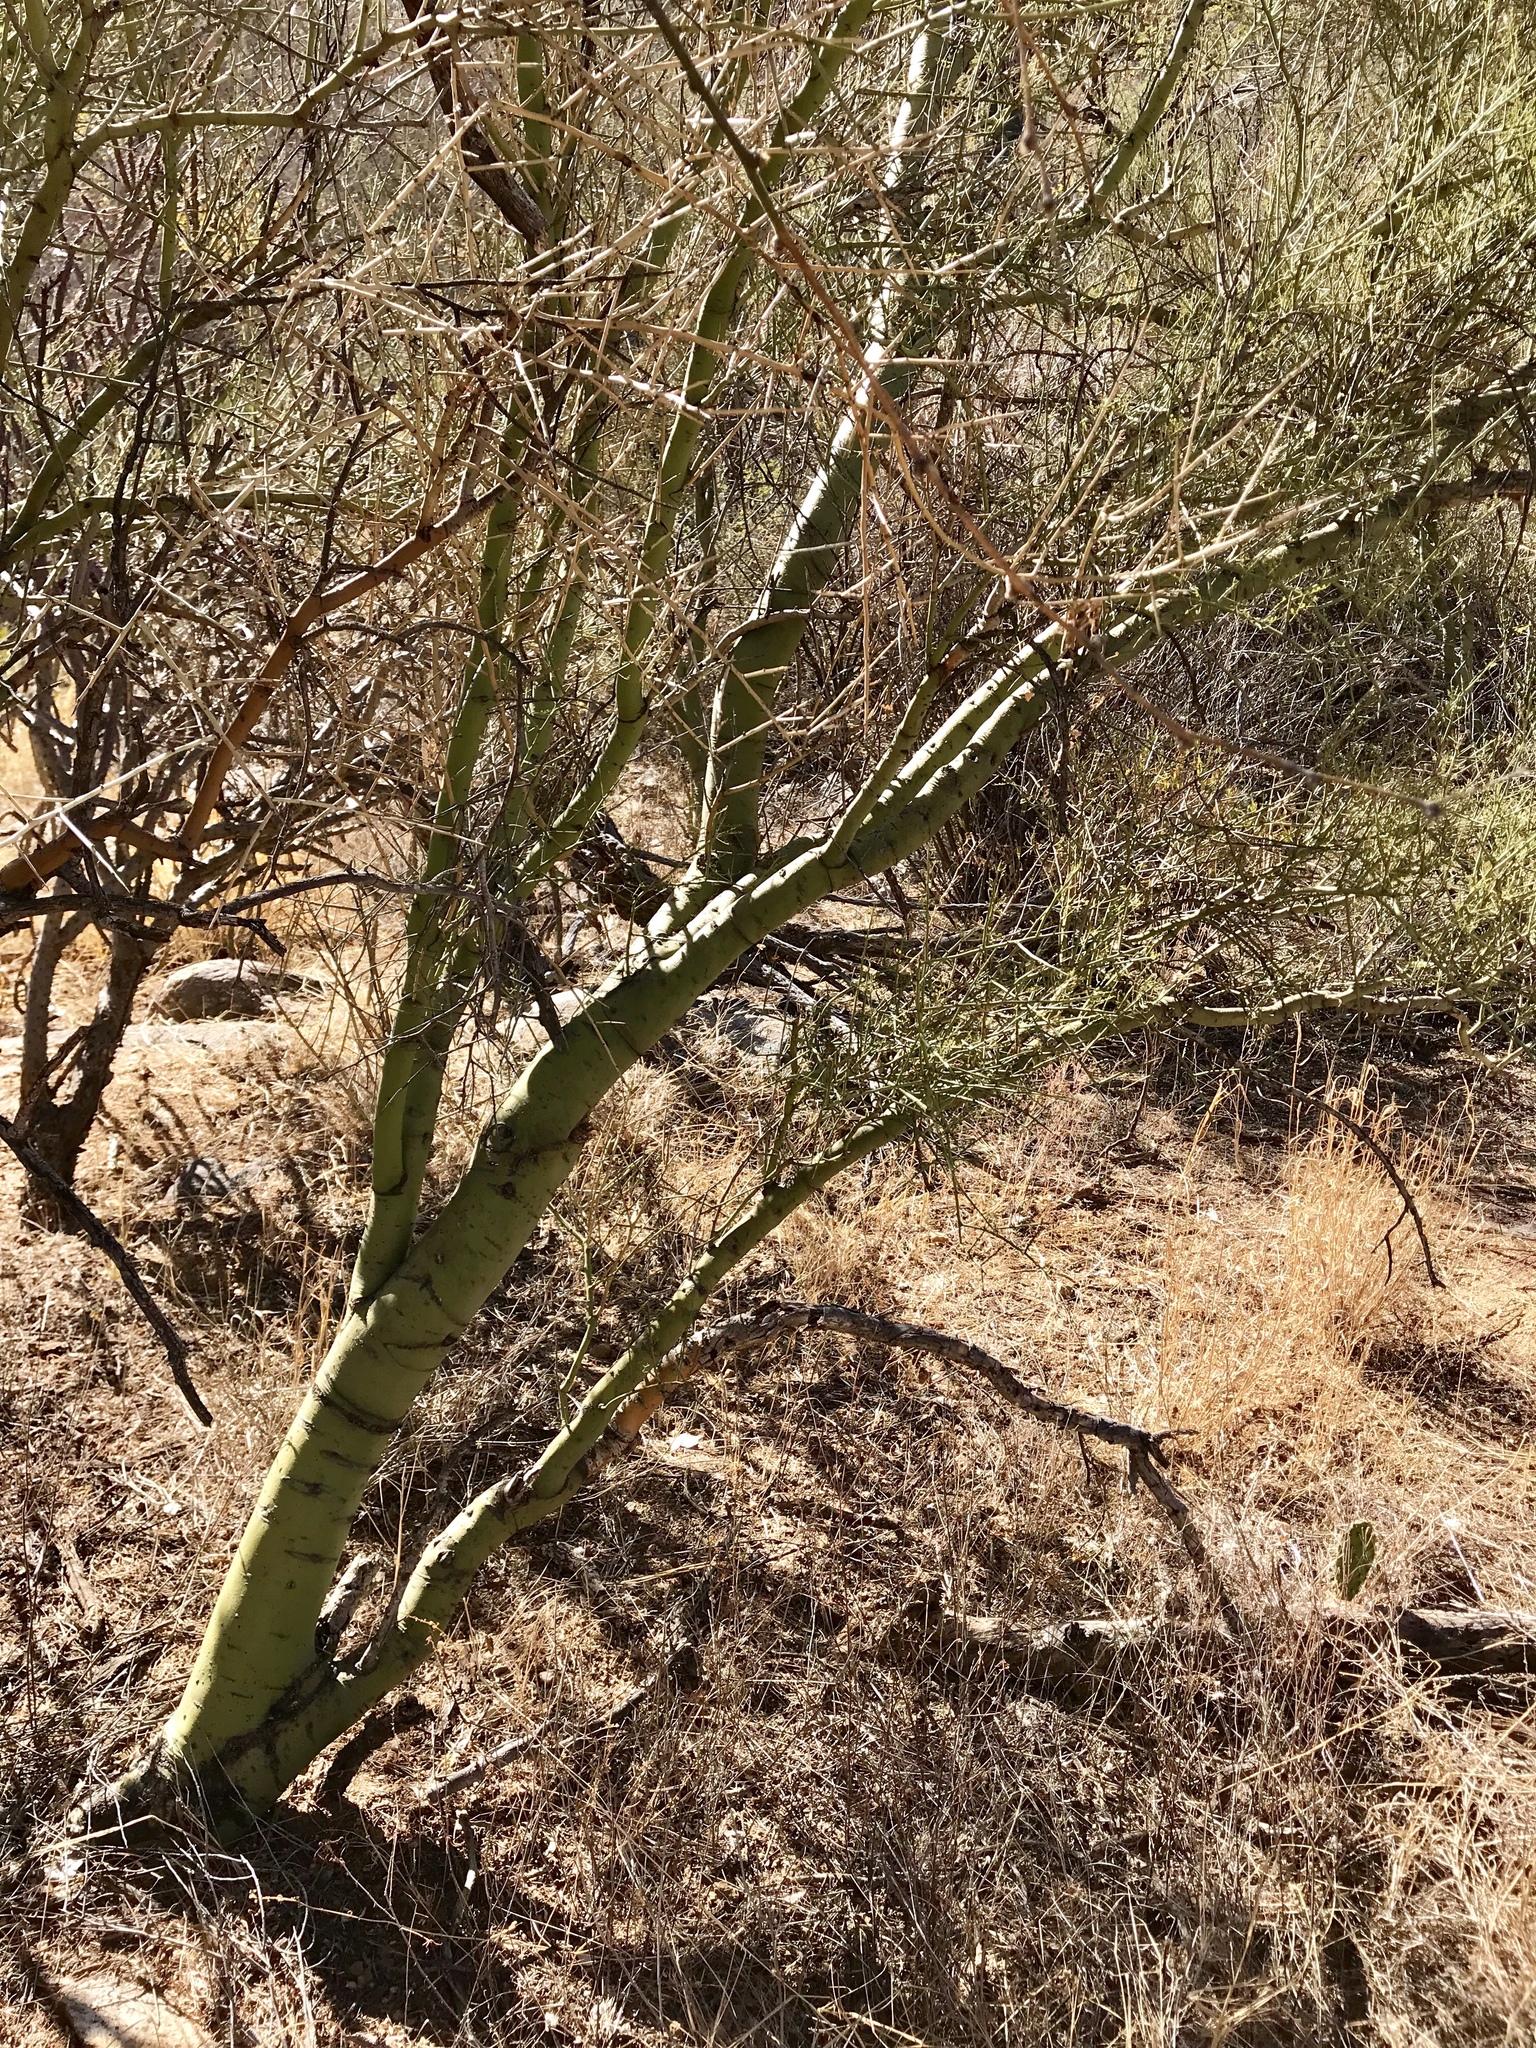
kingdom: Plantae
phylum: Tracheophyta
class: Magnoliopsida
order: Fabales
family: Fabaceae
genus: Parkinsonia
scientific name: Parkinsonia microphylla
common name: Yellow paloverde
